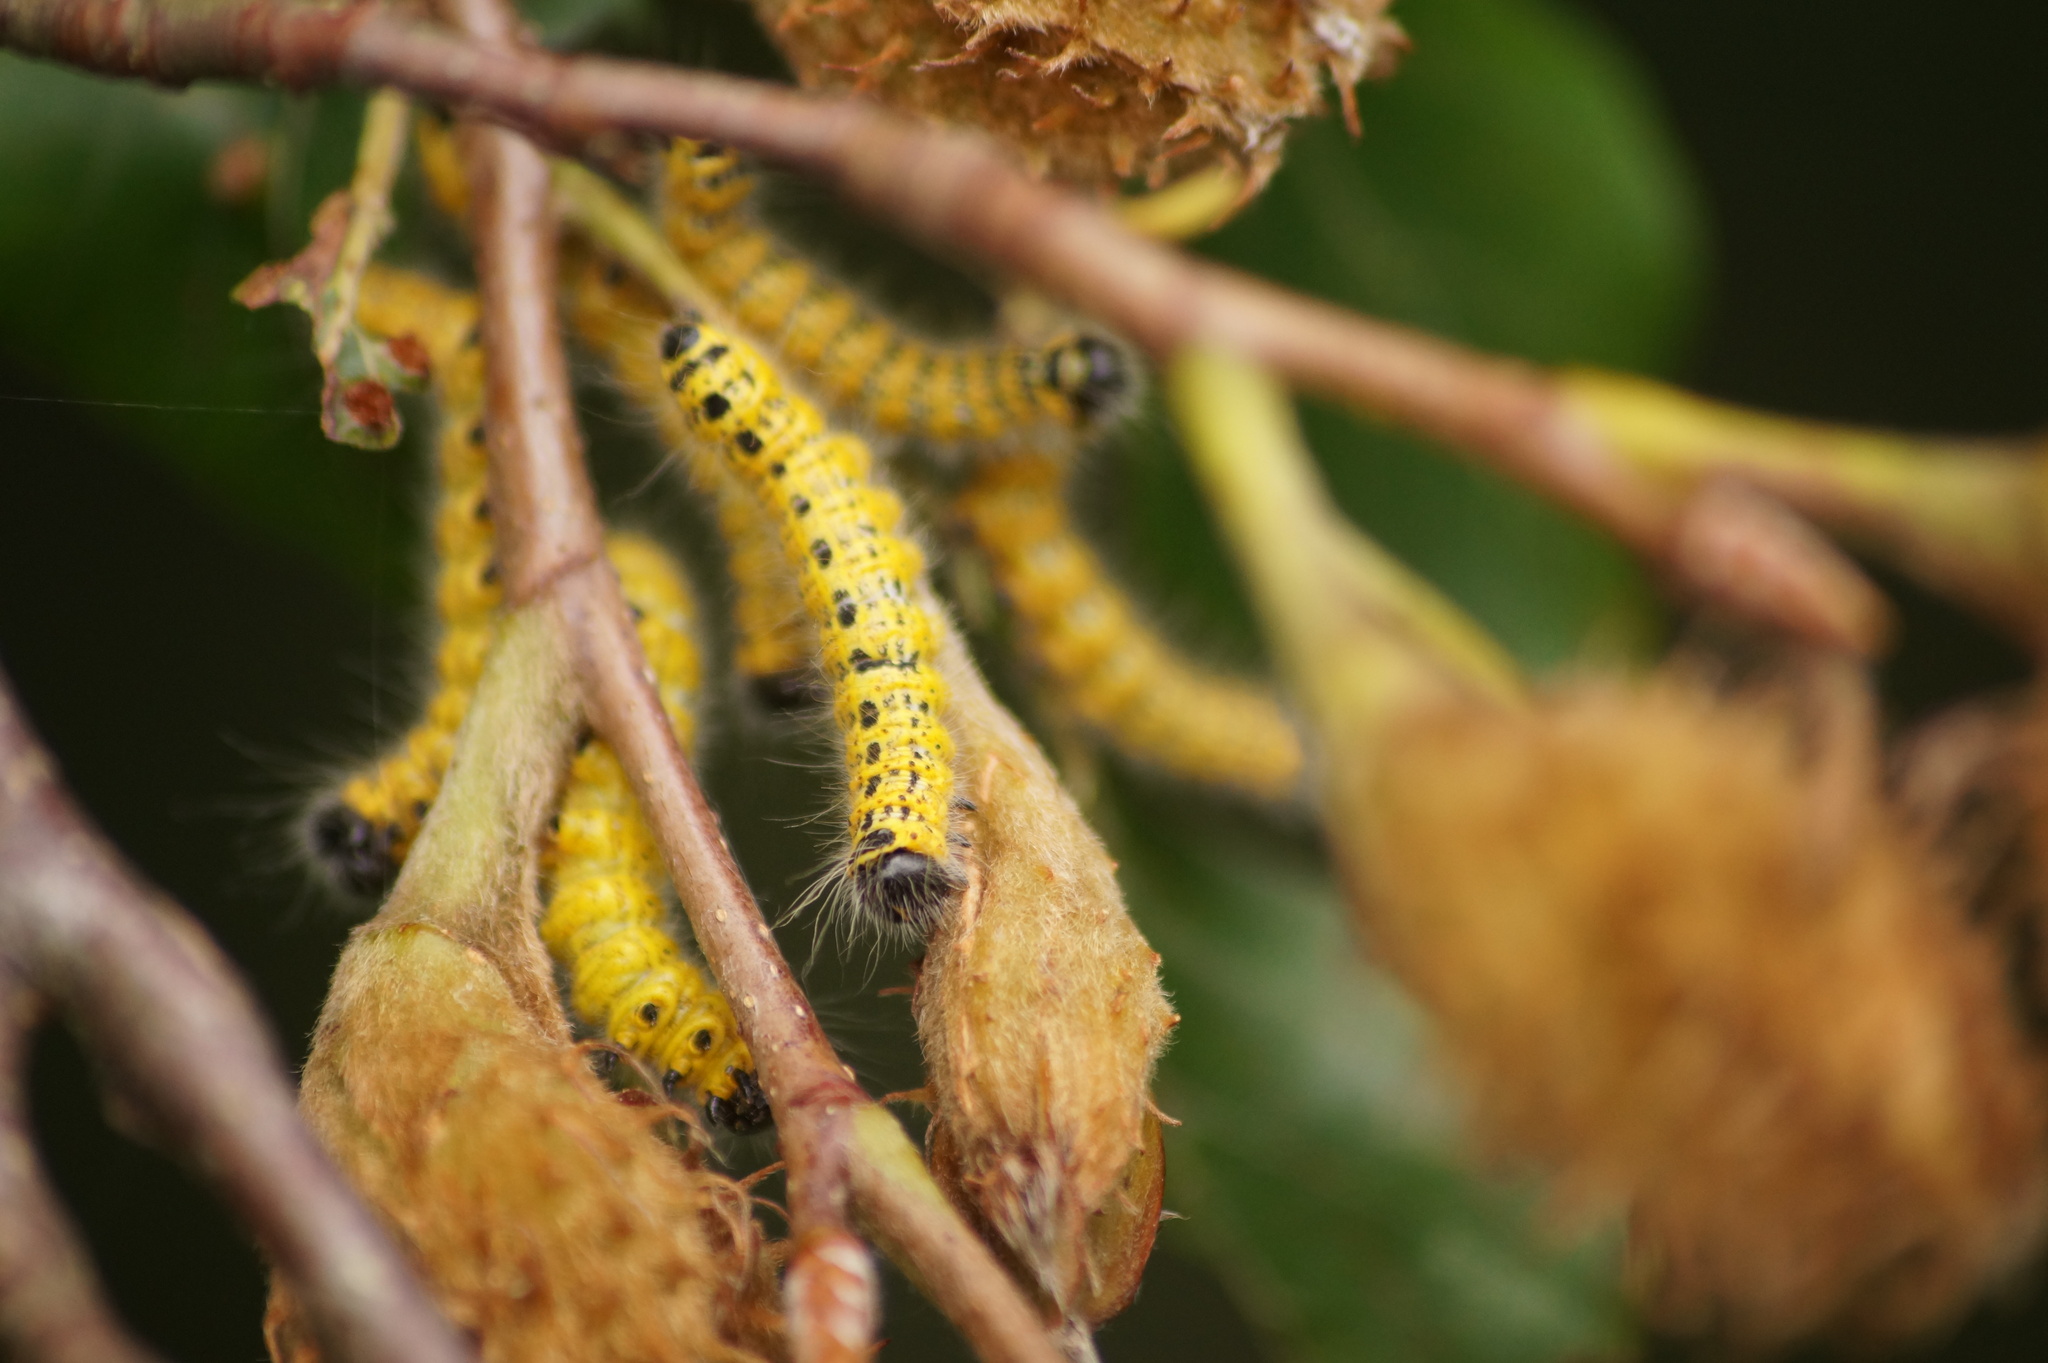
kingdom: Animalia
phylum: Arthropoda
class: Insecta
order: Lepidoptera
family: Notodontidae
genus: Phalera
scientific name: Phalera bucephala
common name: Buff-tip
